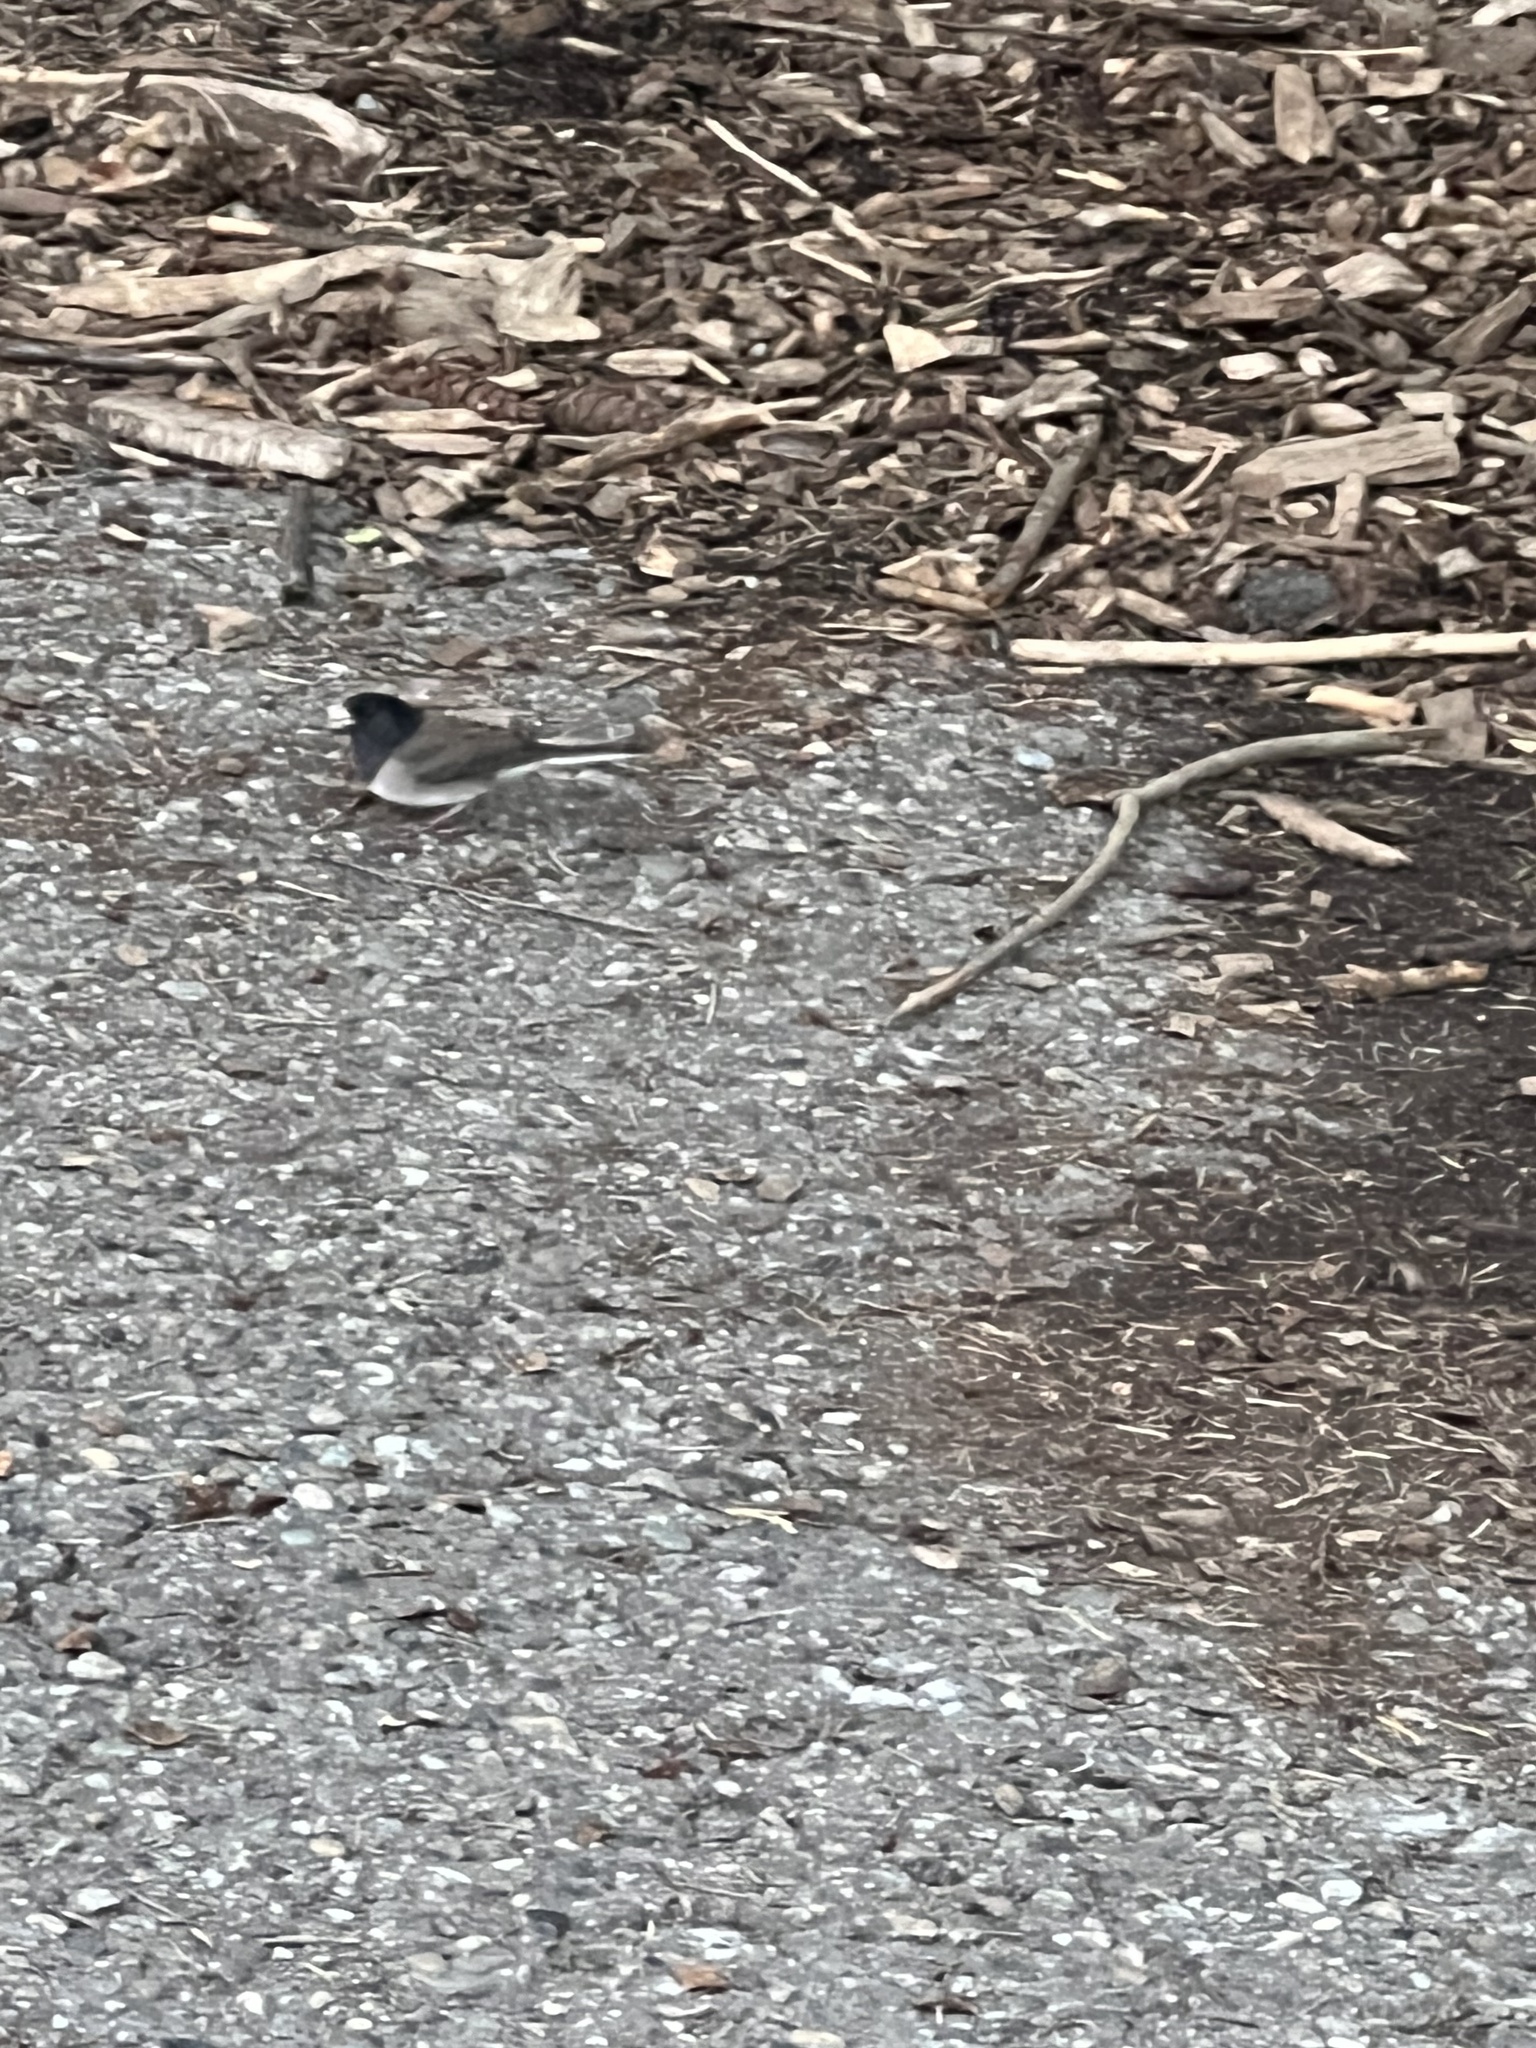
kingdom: Animalia
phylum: Chordata
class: Aves
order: Passeriformes
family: Passerellidae
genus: Junco
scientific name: Junco hyemalis
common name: Dark-eyed junco
